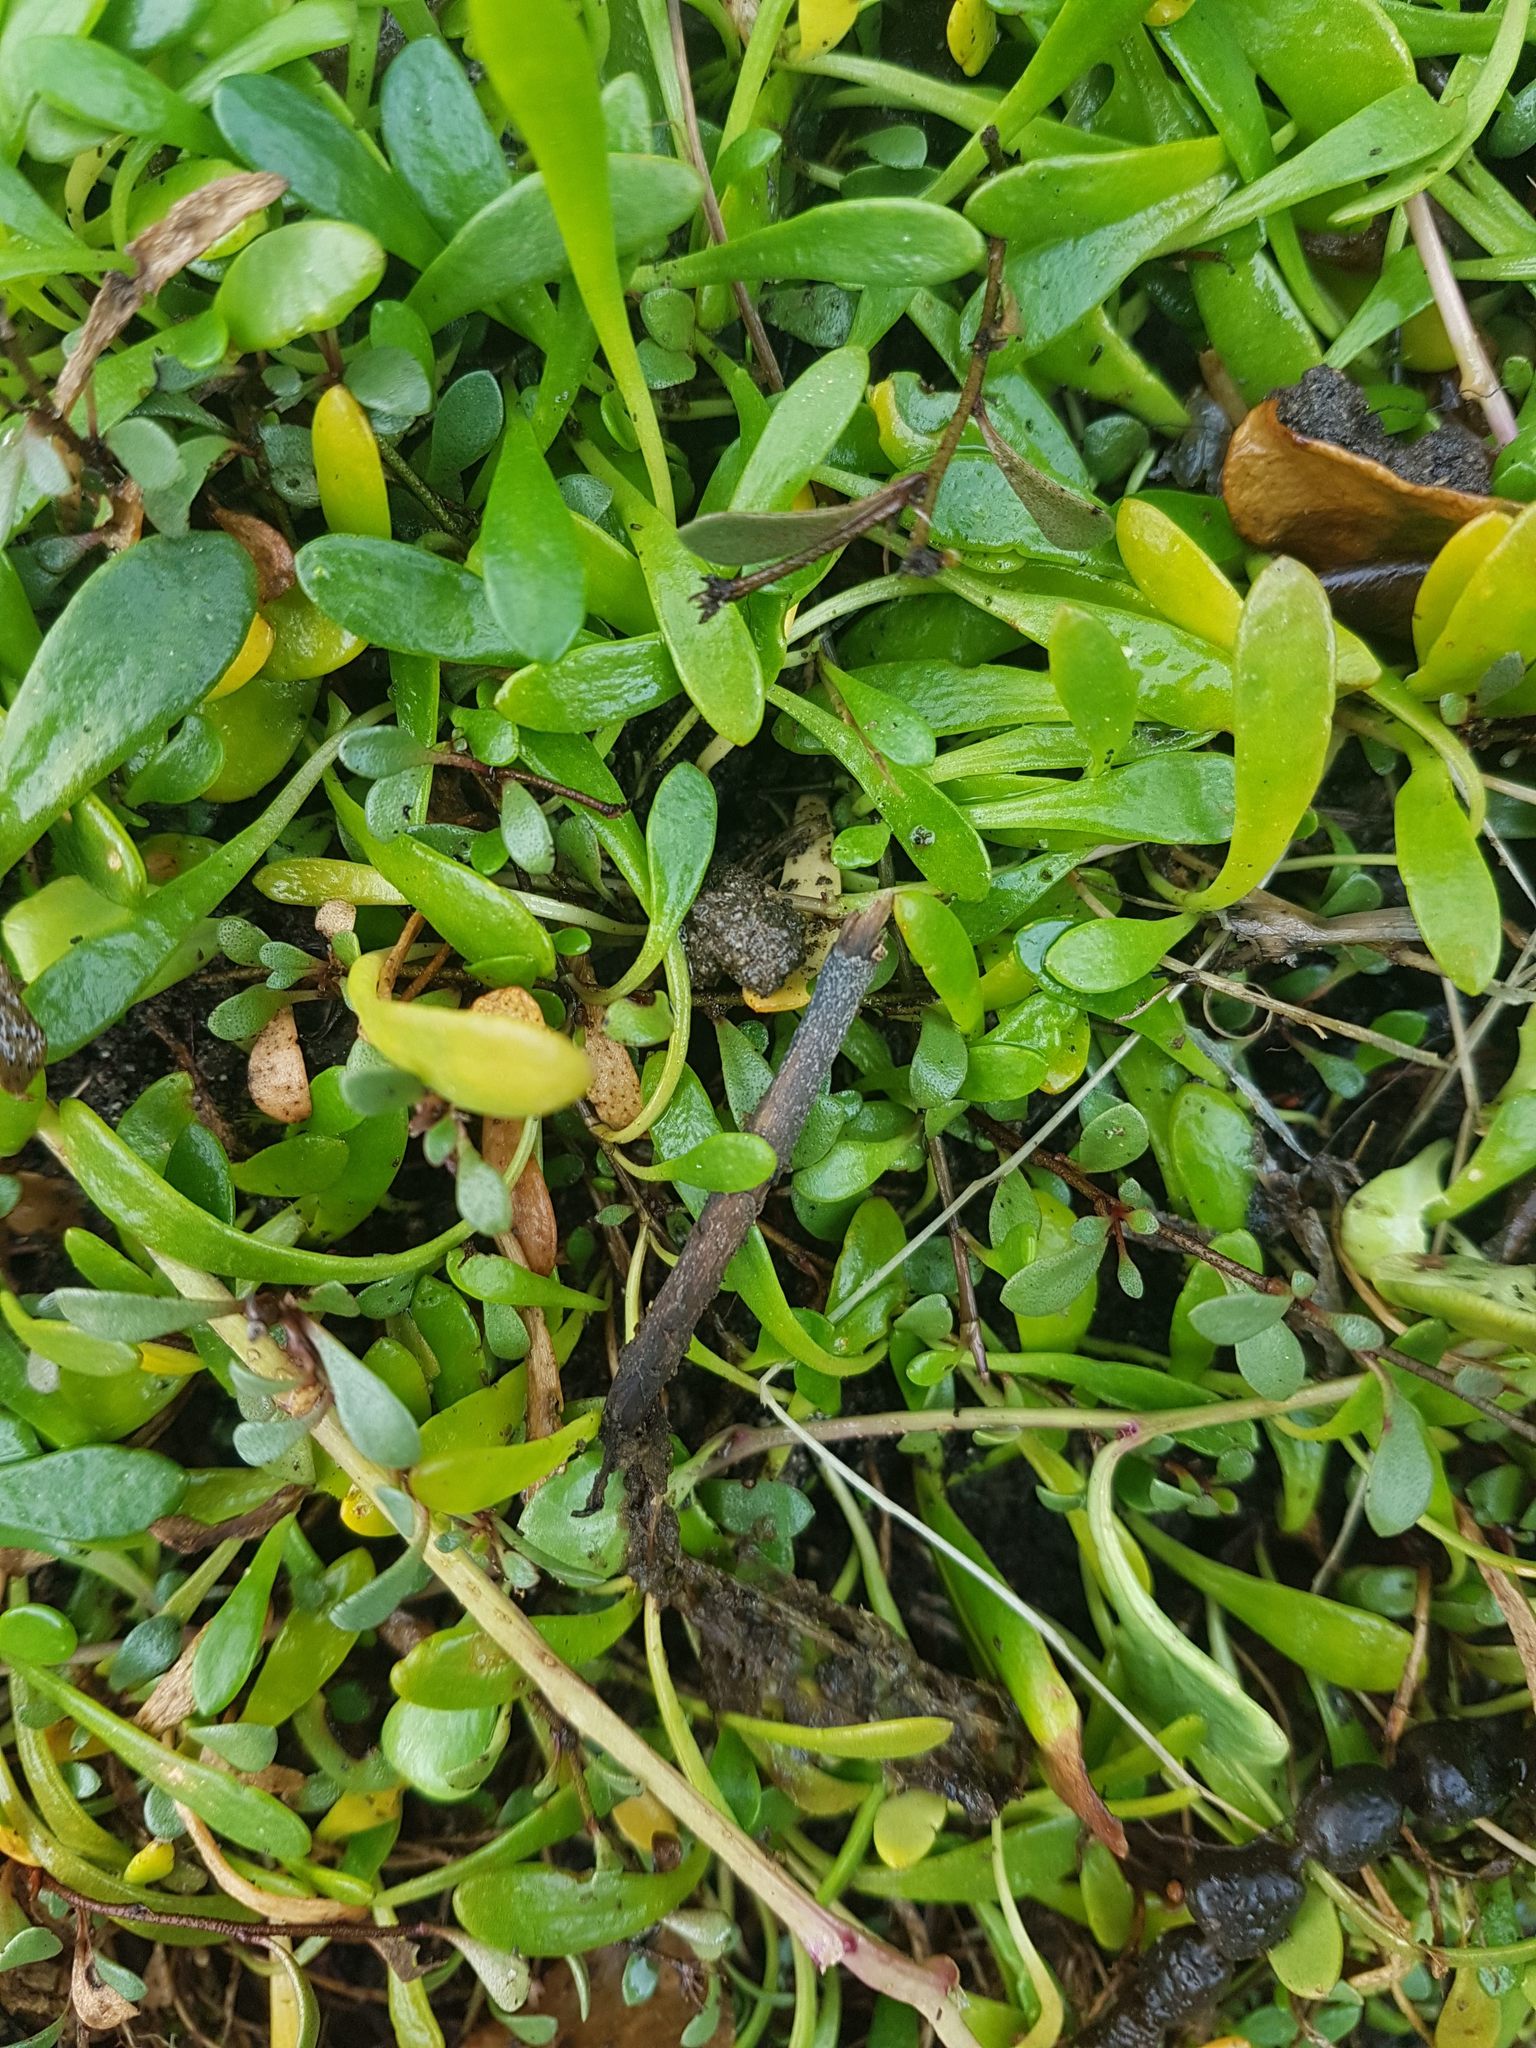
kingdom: Plantae
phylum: Tracheophyta
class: Magnoliopsida
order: Asterales
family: Goodeniaceae
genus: Goodenia
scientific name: Goodenia radicans
